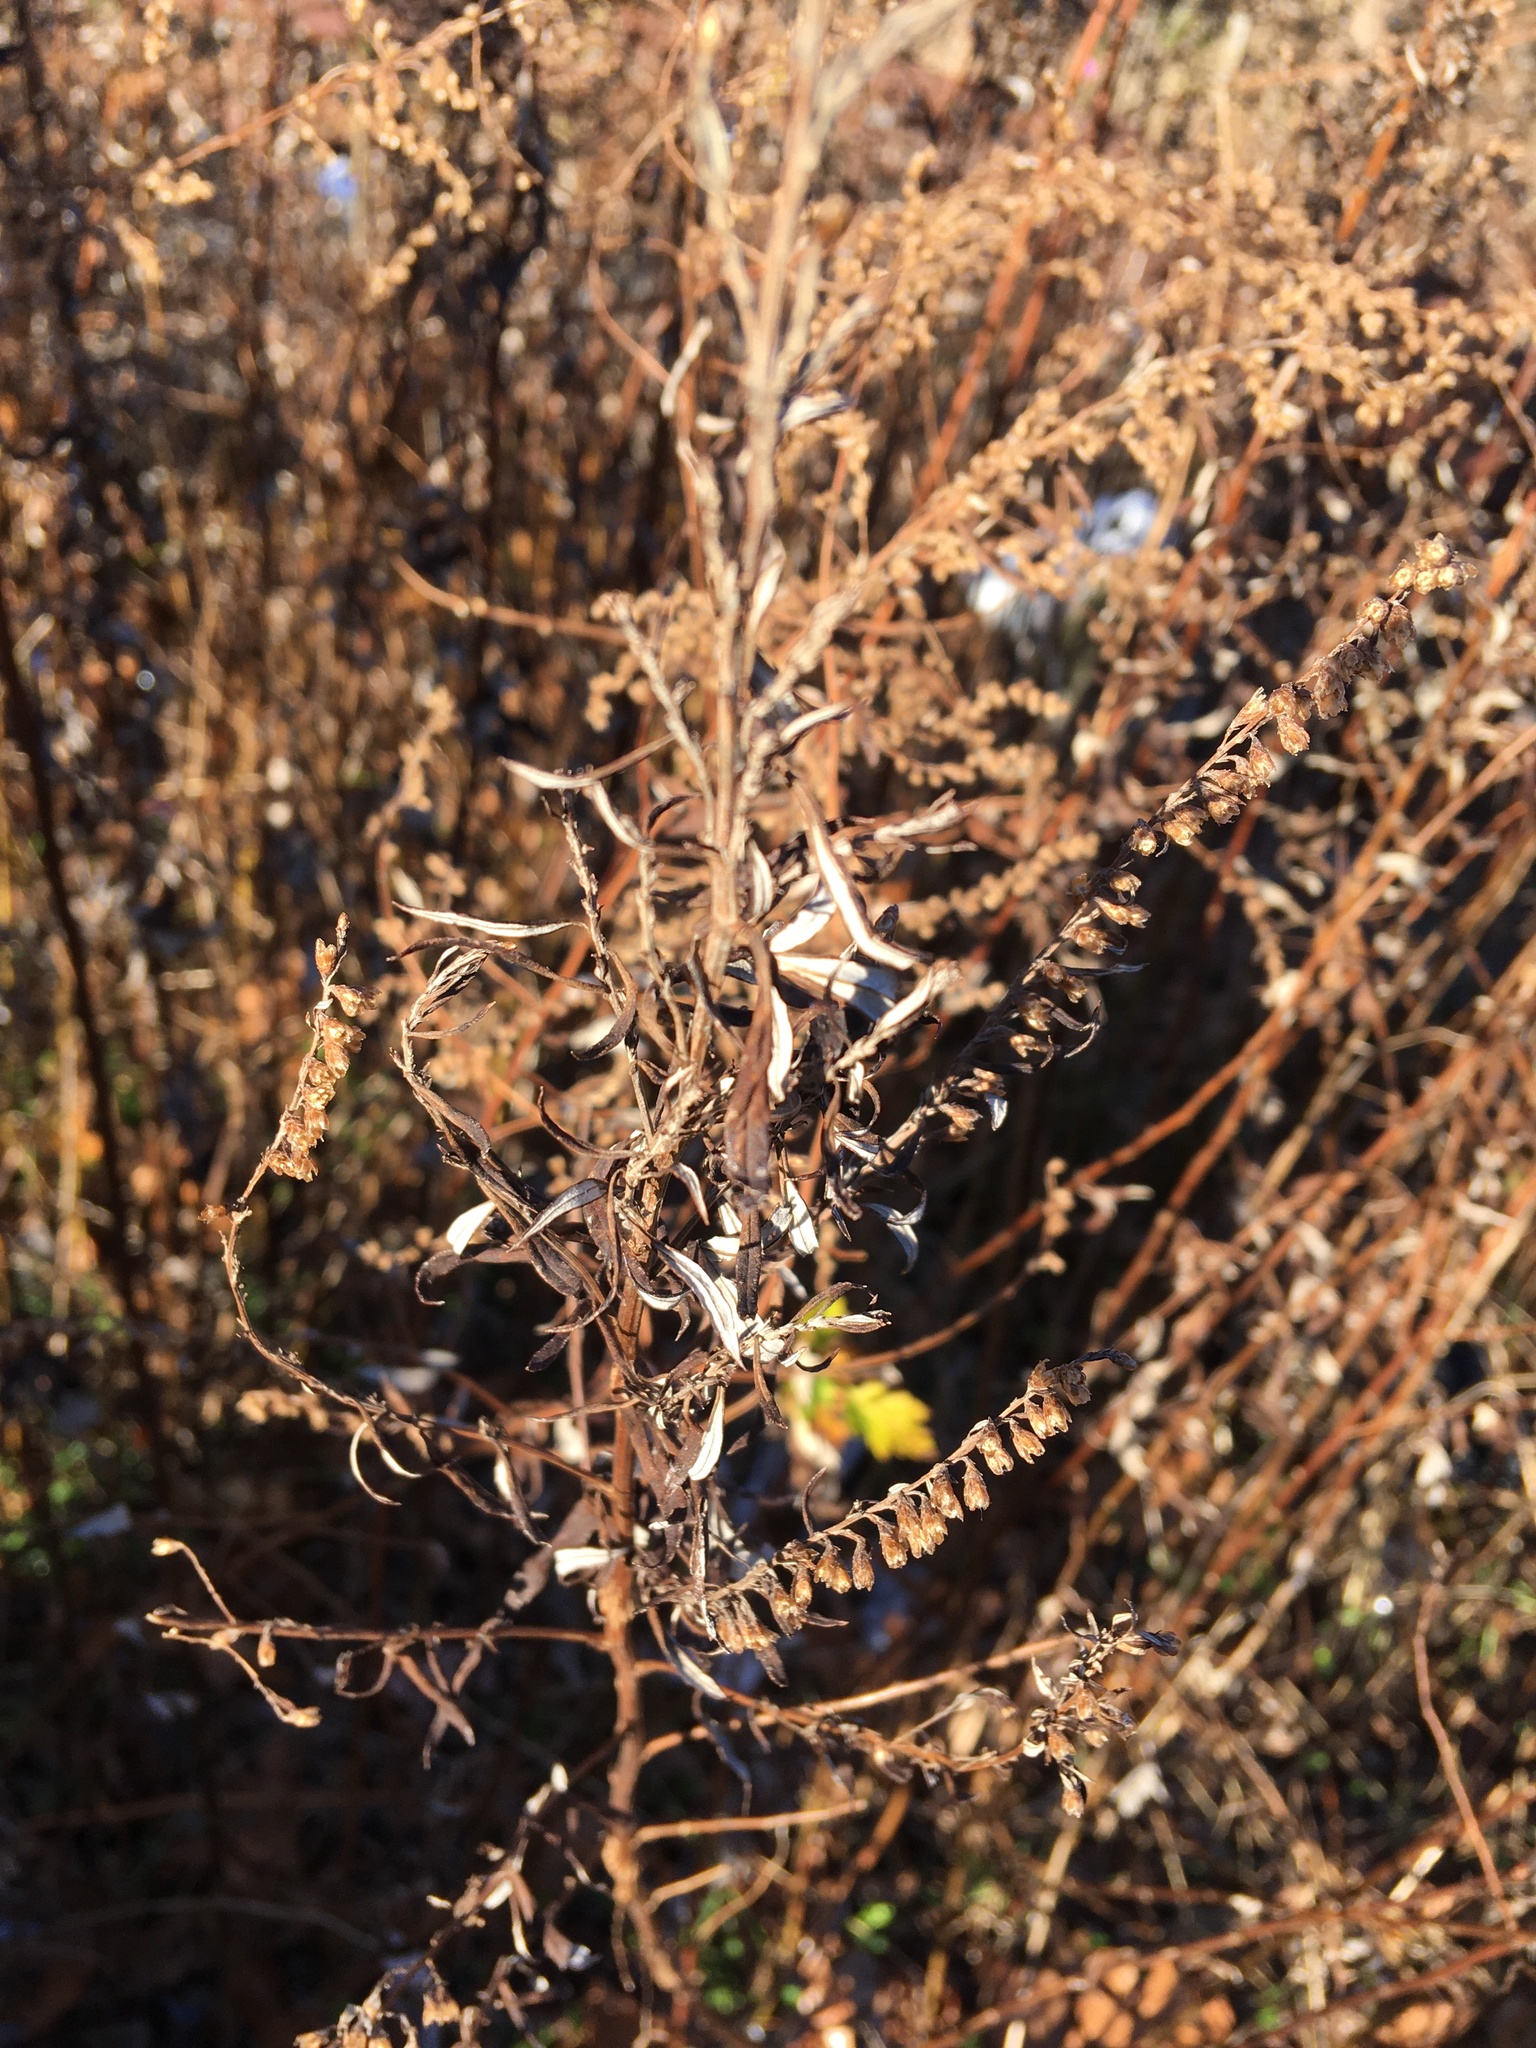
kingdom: Plantae
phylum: Tracheophyta
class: Magnoliopsida
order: Asterales
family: Asteraceae
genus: Artemisia
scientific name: Artemisia vulgaris
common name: Mugwort
